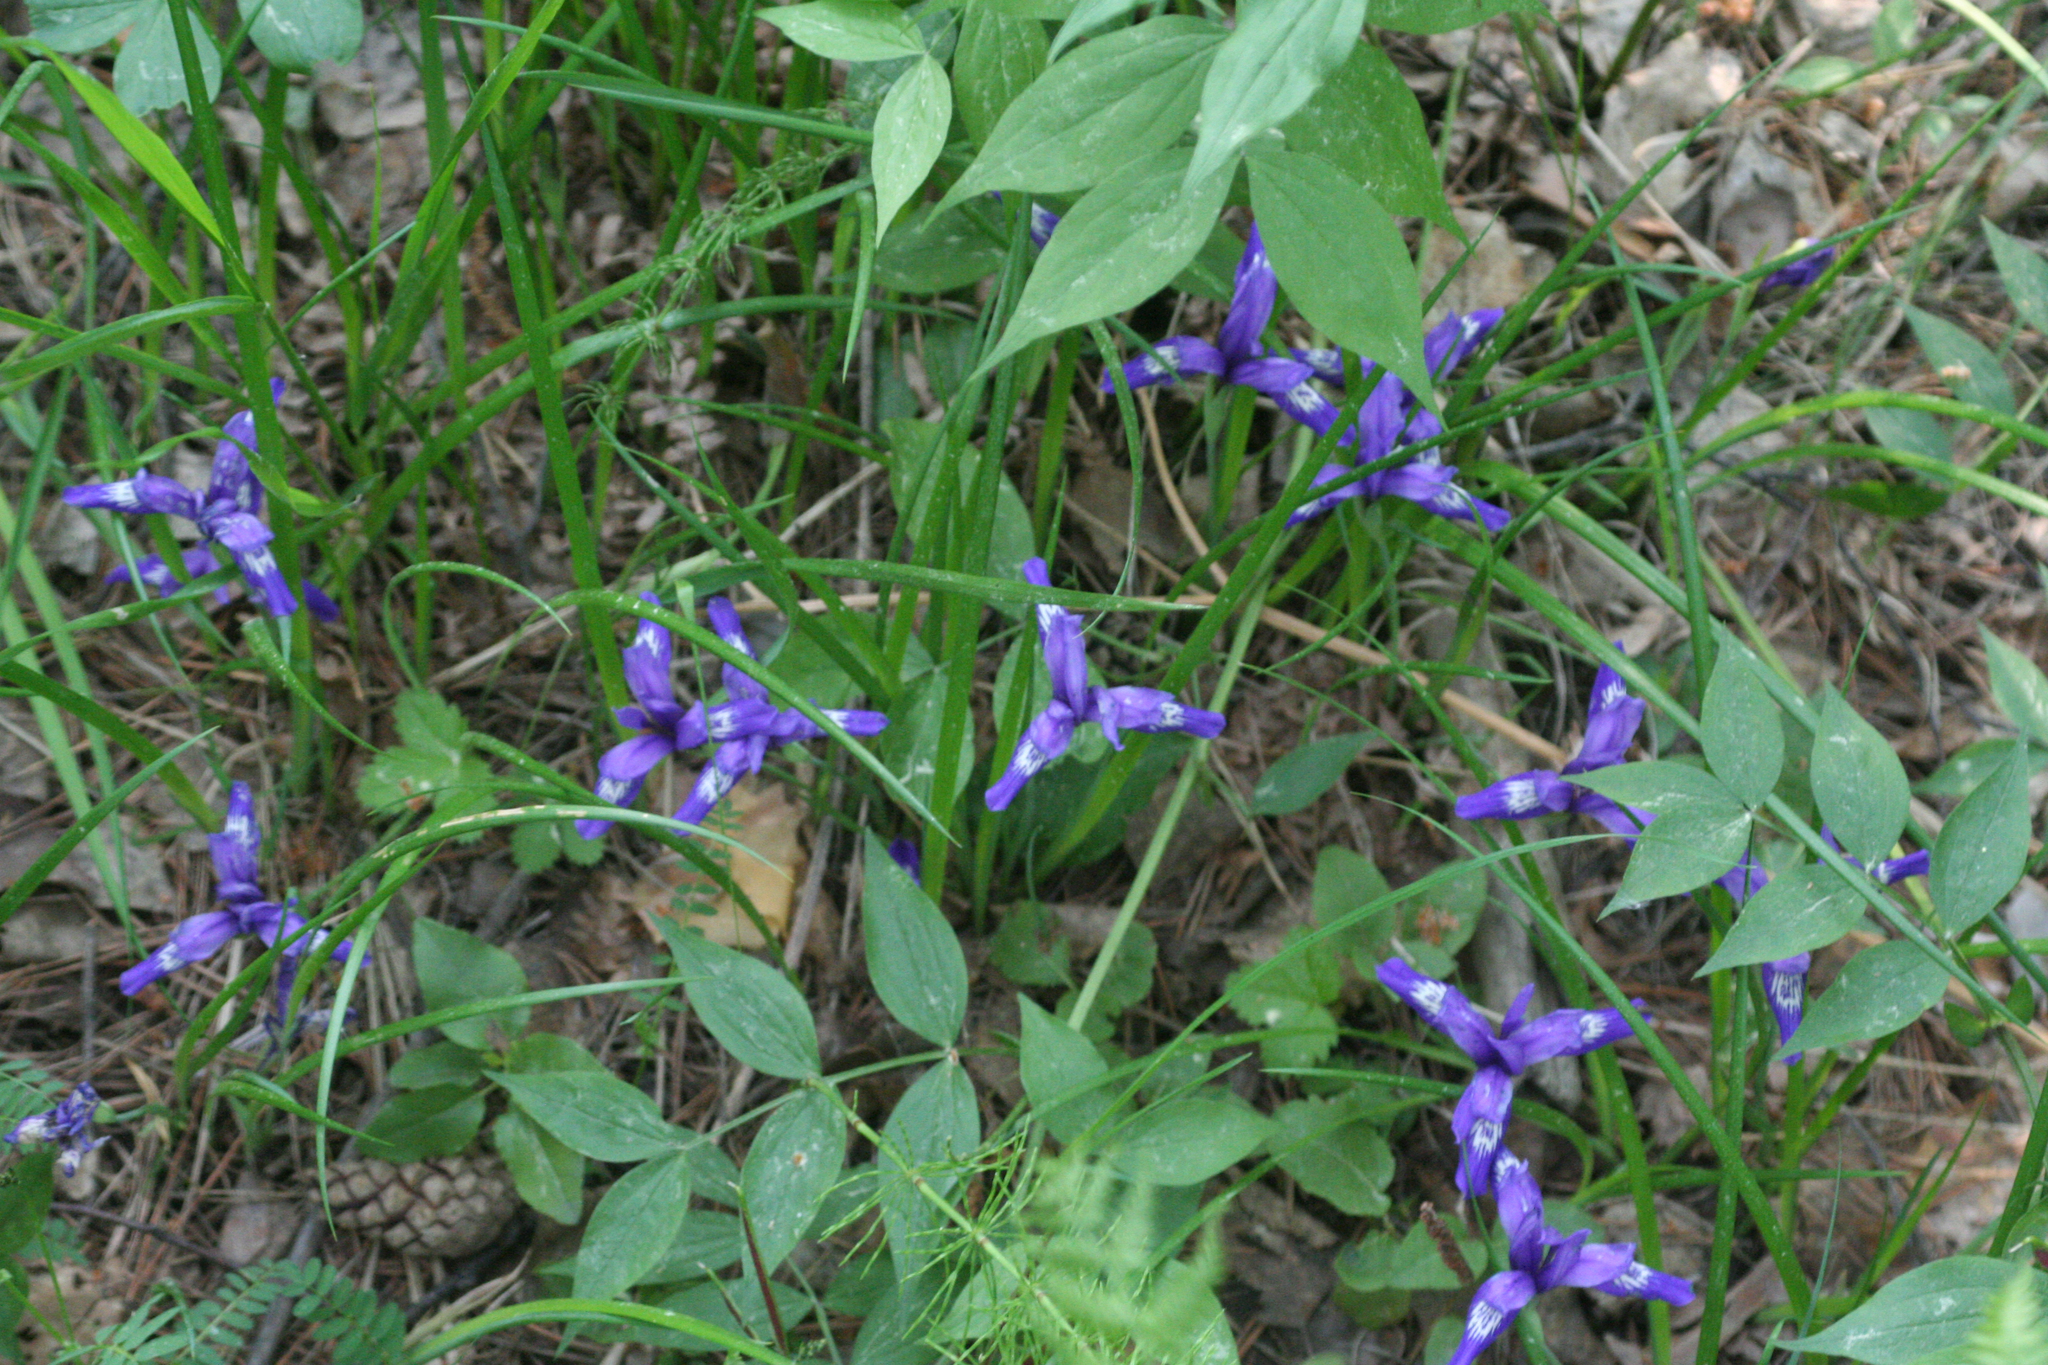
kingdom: Plantae
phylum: Tracheophyta
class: Liliopsida
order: Asparagales
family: Iridaceae
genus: Iris
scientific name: Iris ruthenica
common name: Purple-bract iris
